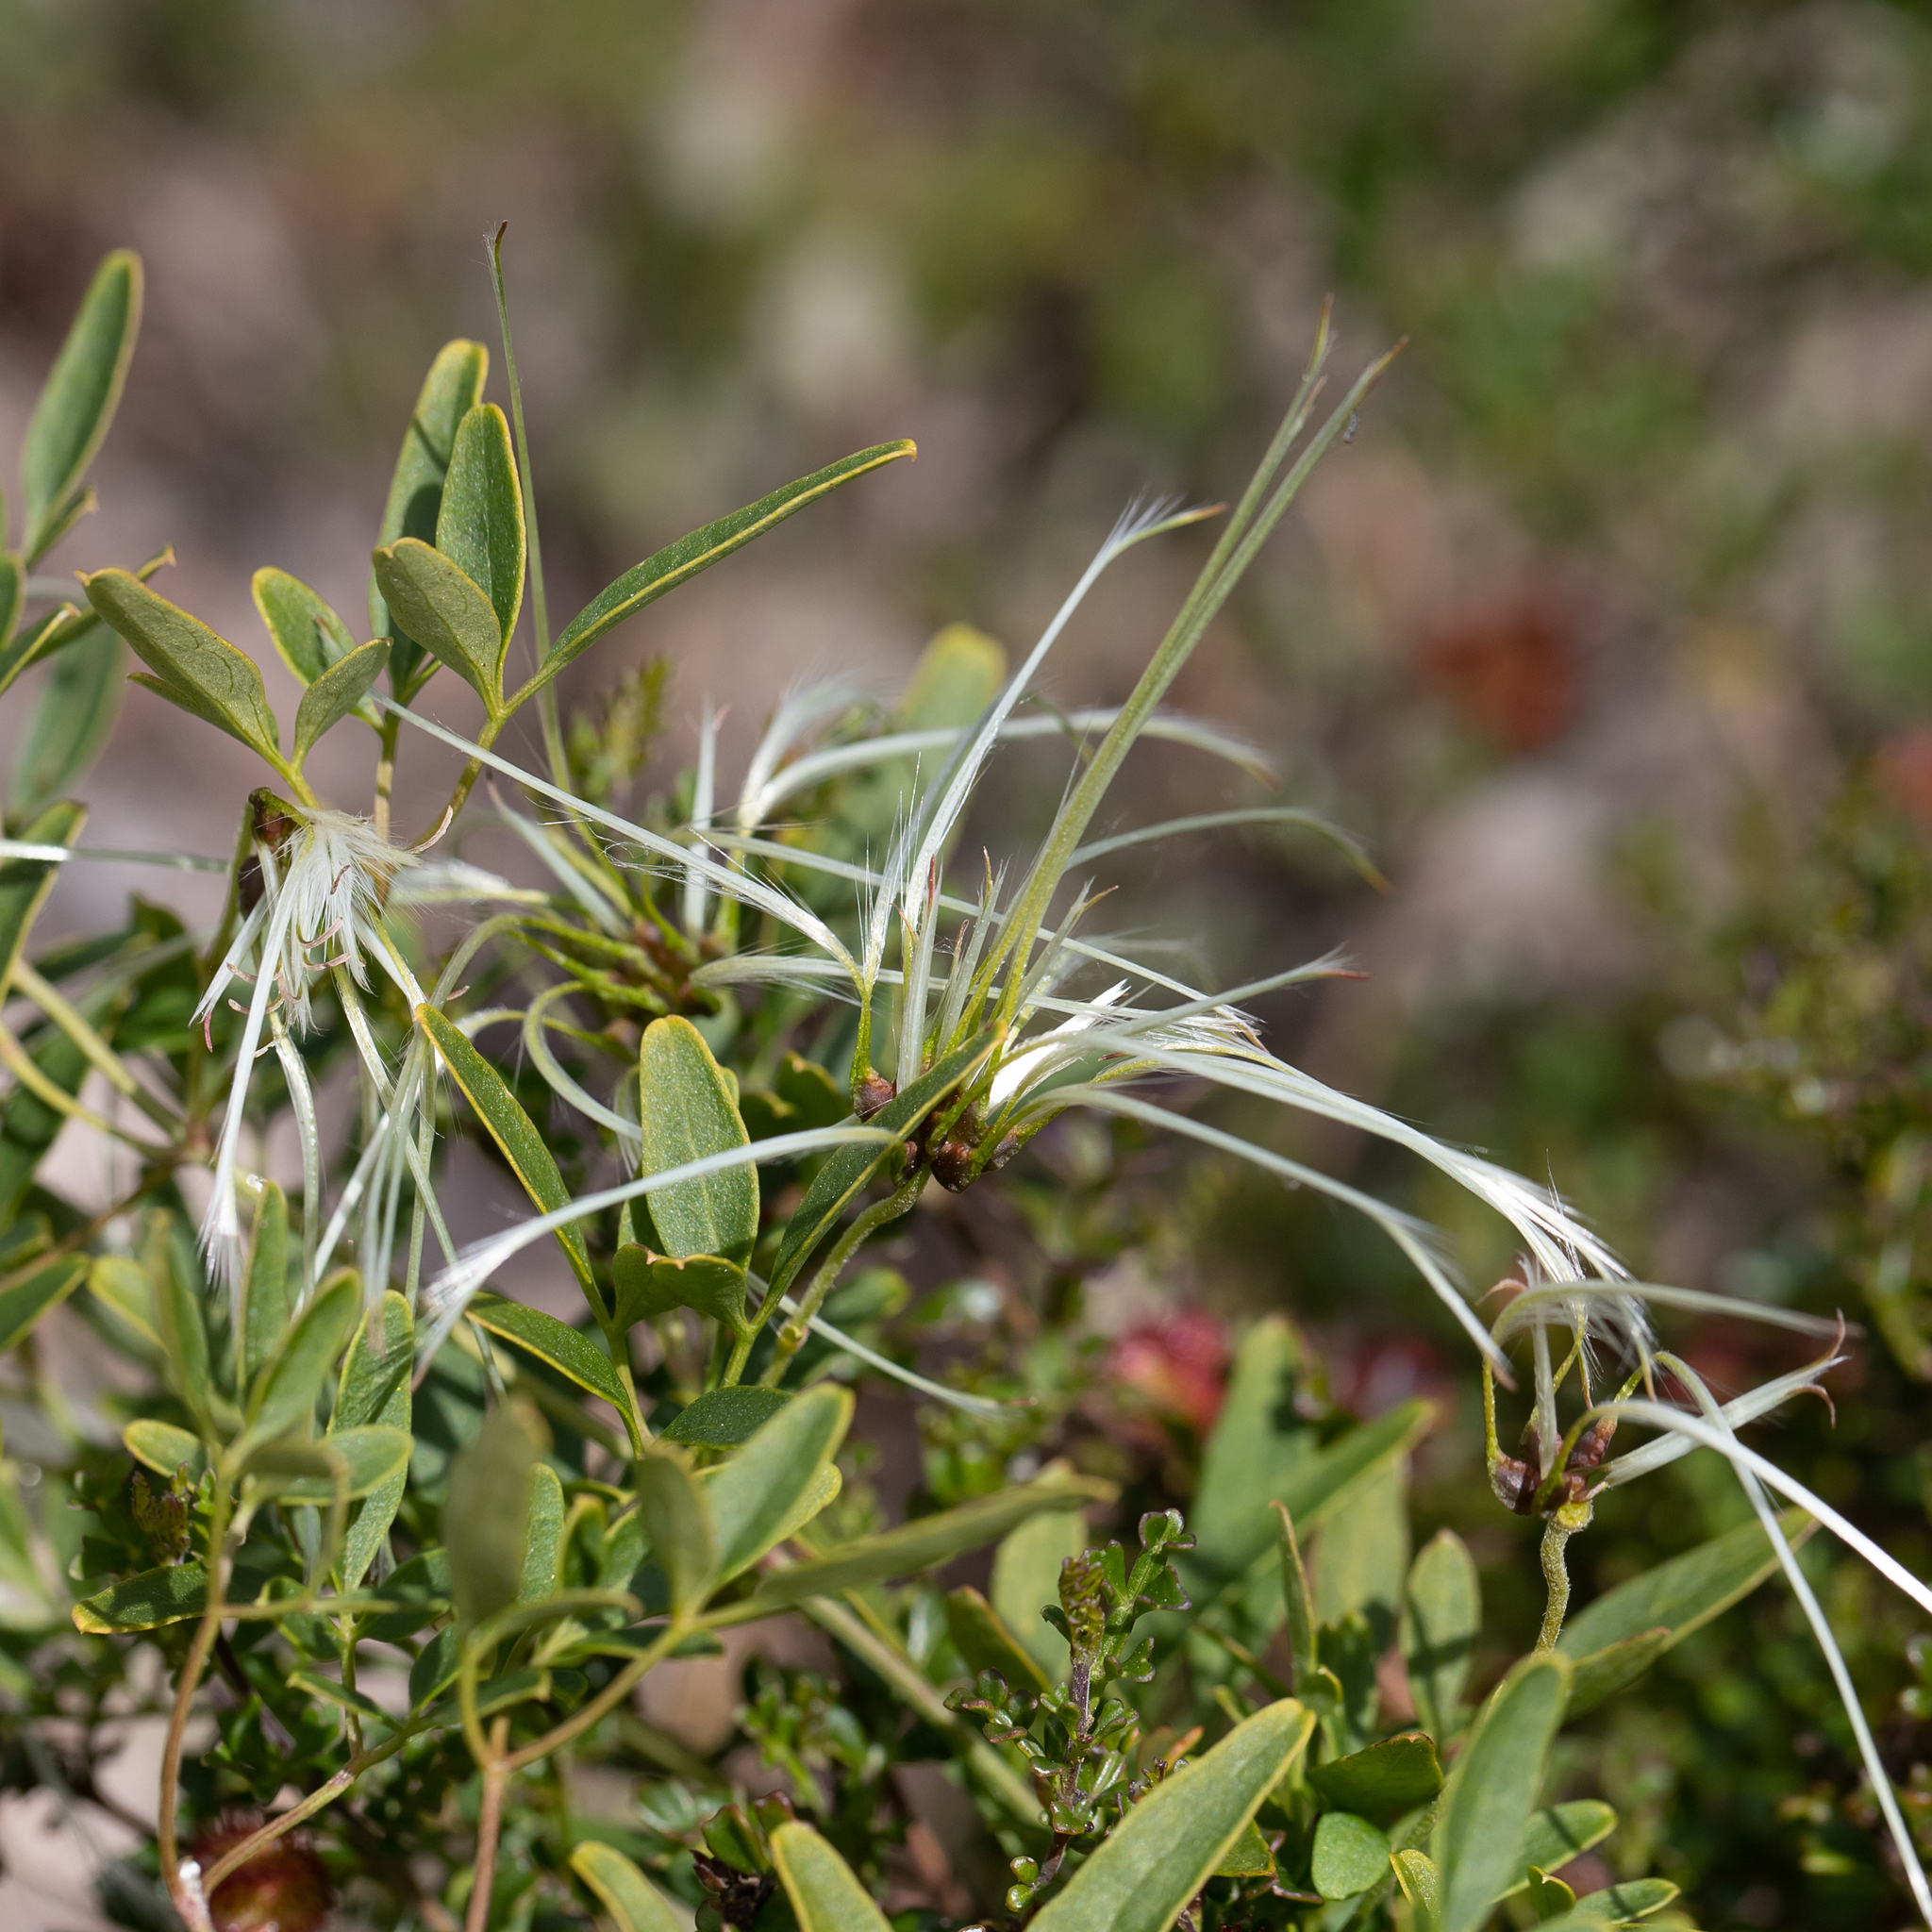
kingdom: Plantae
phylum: Tracheophyta
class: Magnoliopsida
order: Ranunculales
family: Ranunculaceae
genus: Clematis
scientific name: Clematis microphylla
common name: Headachevine
